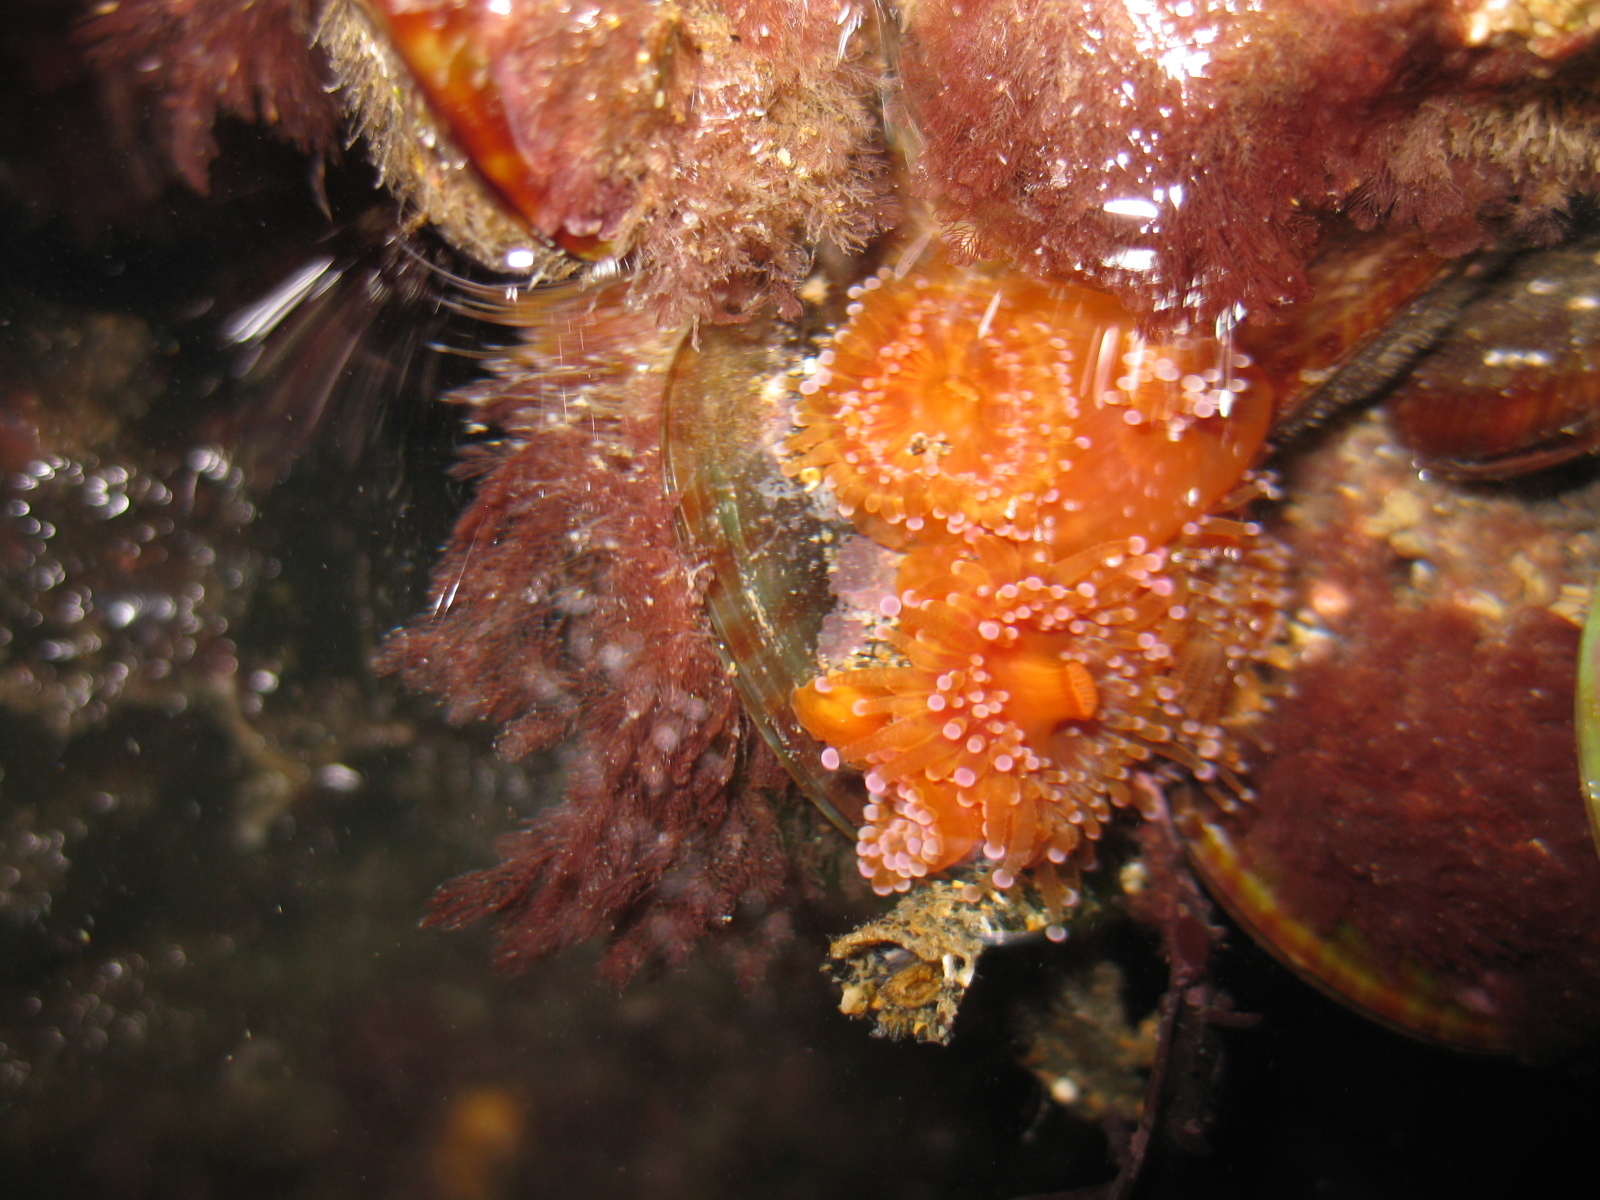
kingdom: Animalia
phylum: Cnidaria
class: Anthozoa
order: Corallimorpharia
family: Corallimorphidae
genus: Corynactis
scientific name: Corynactis australis
